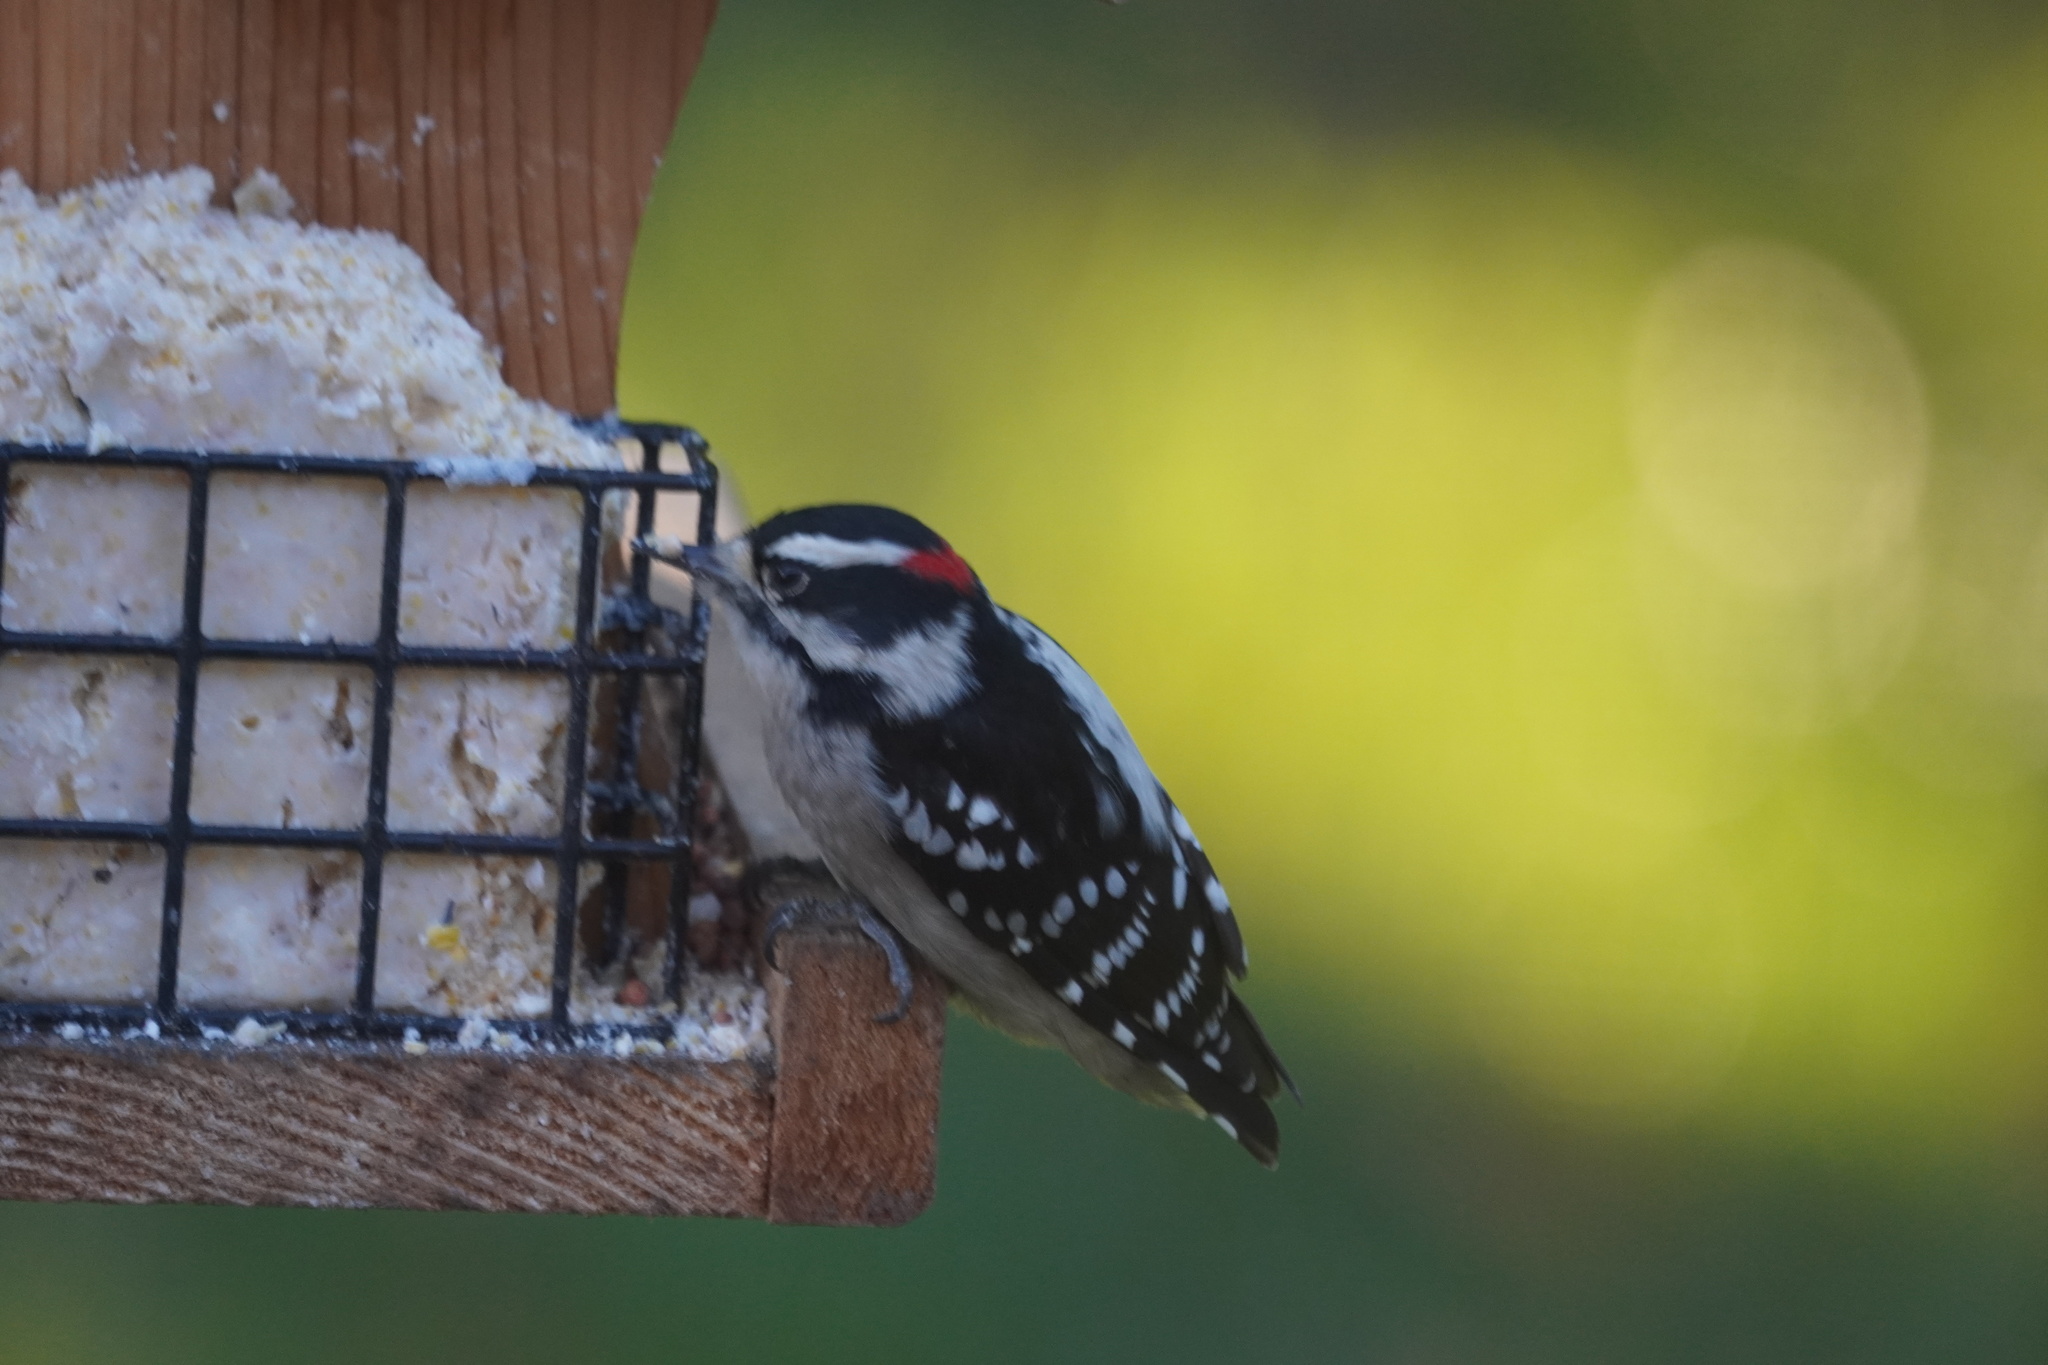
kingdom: Animalia
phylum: Chordata
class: Aves
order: Piciformes
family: Picidae
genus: Dryobates
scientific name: Dryobates pubescens
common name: Downy woodpecker
